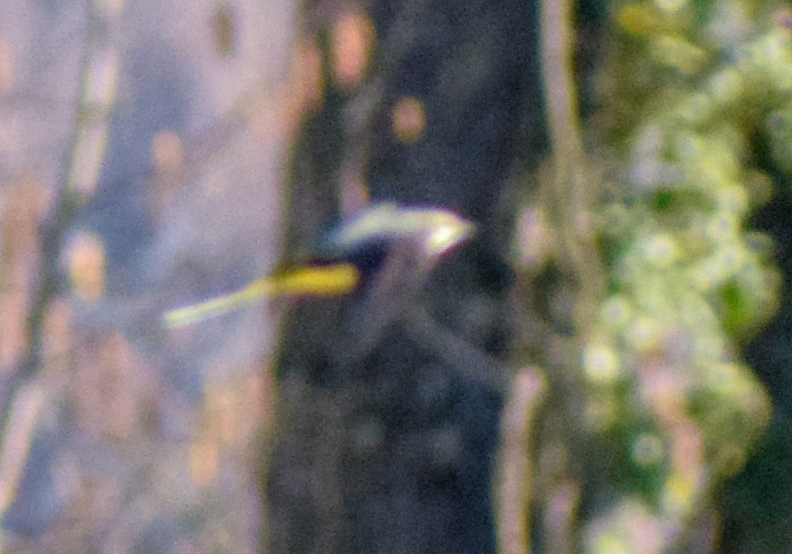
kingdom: Animalia
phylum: Chordata
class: Aves
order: Passeriformes
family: Motacillidae
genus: Motacilla
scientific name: Motacilla cinerea
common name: Grey wagtail
